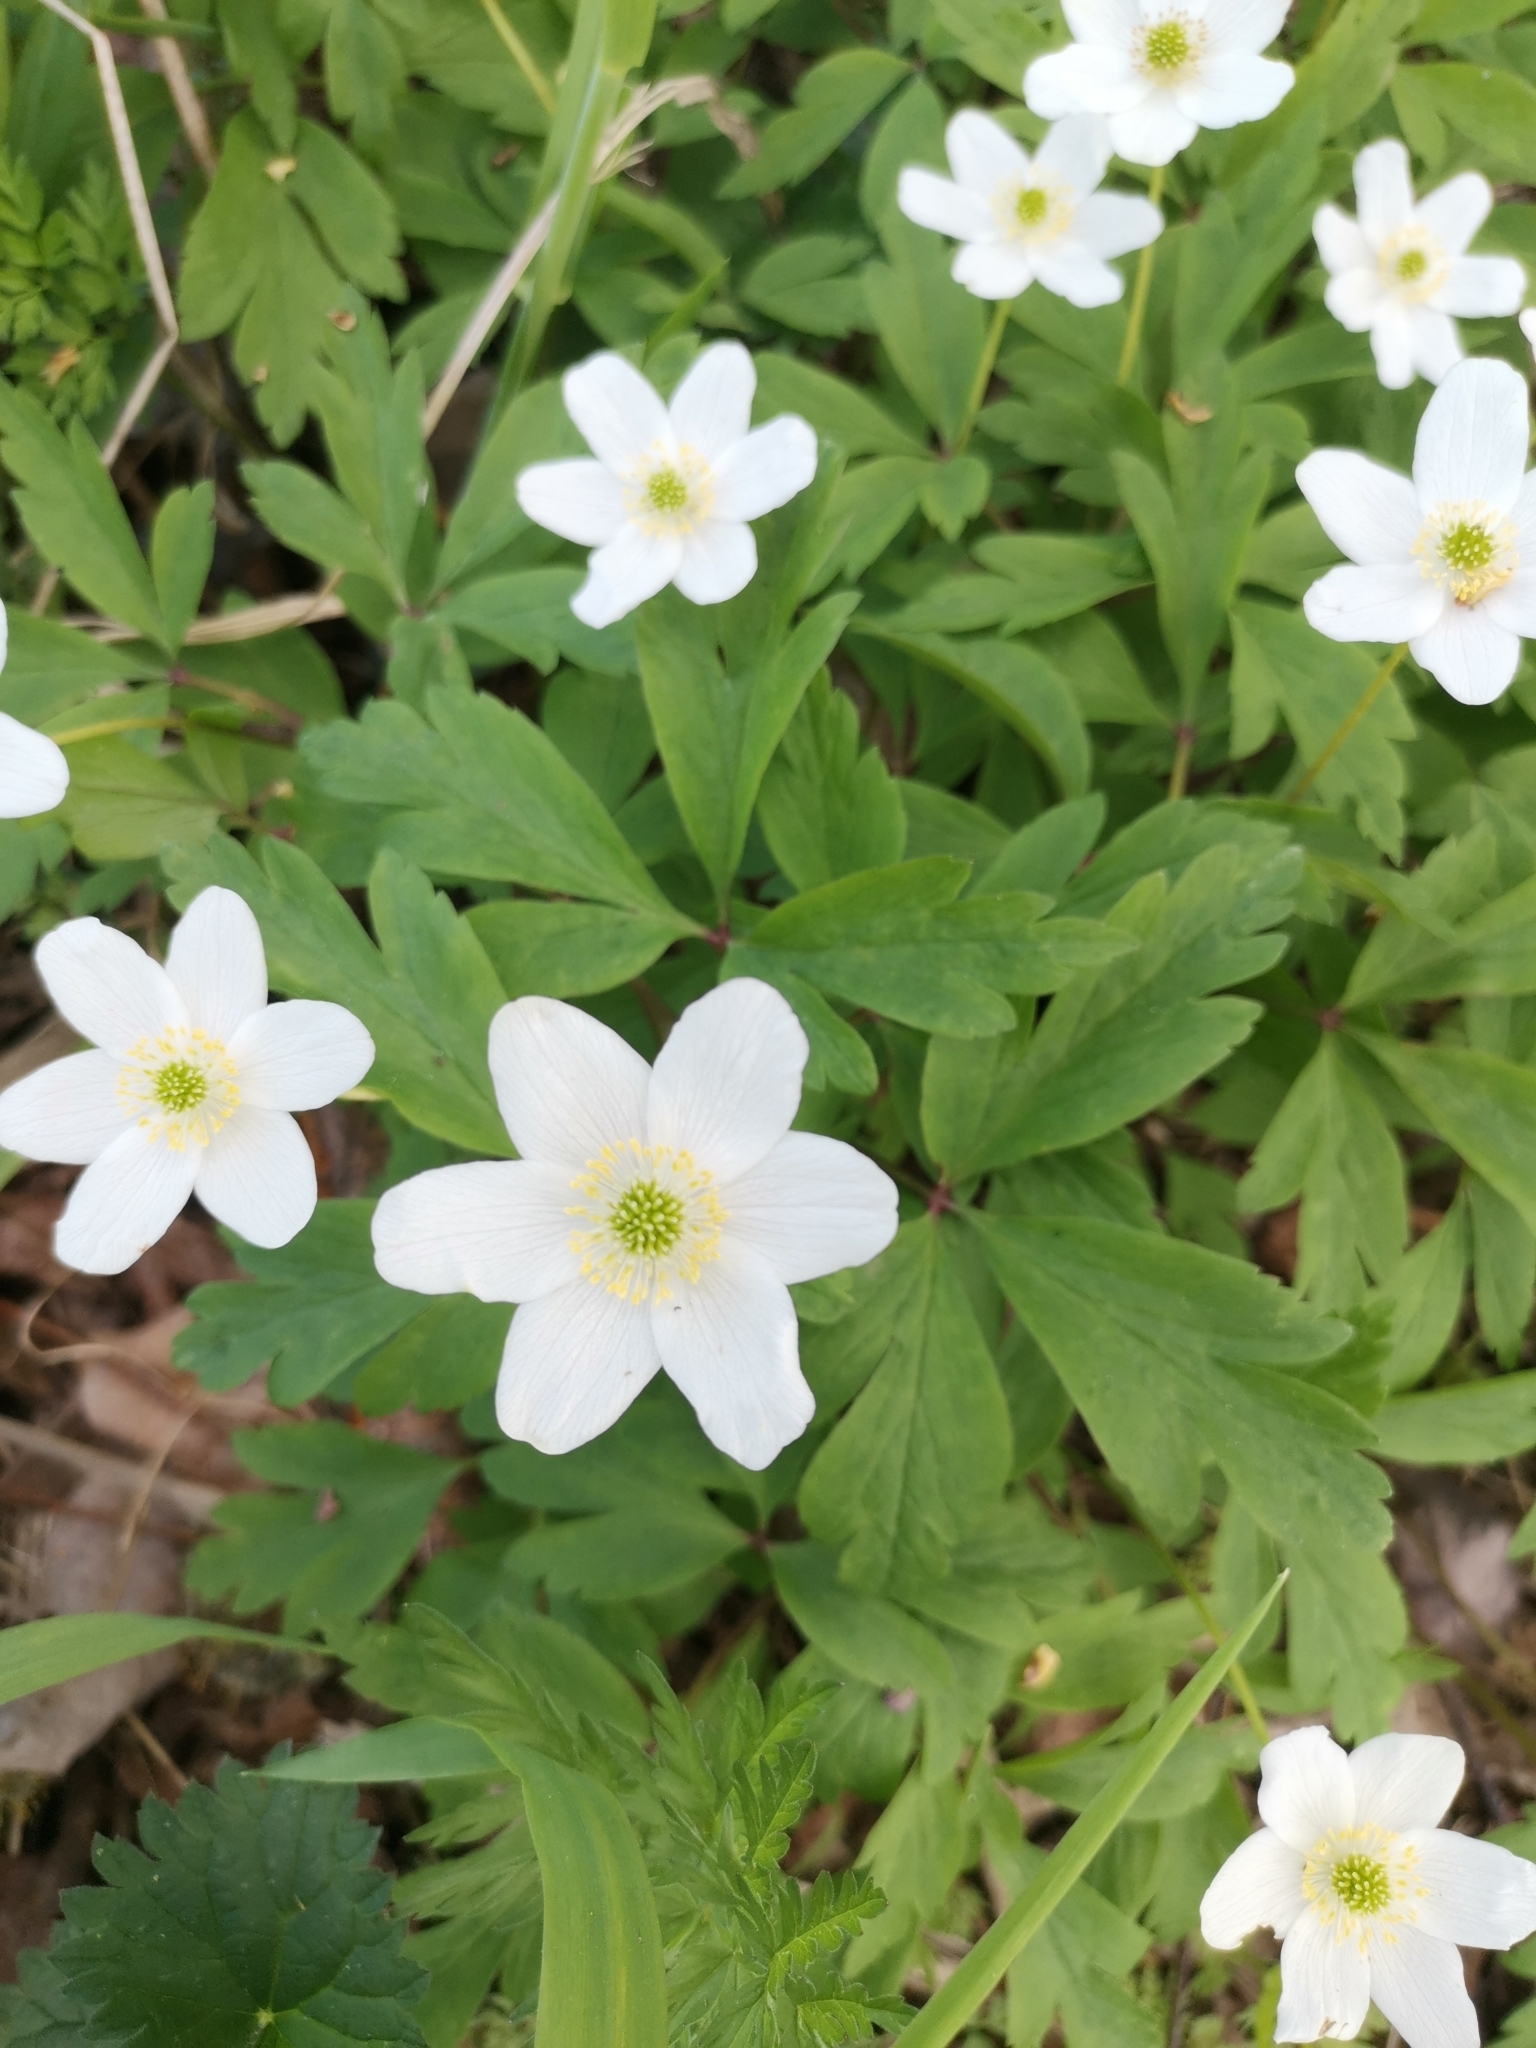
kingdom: Plantae
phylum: Tracheophyta
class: Magnoliopsida
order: Ranunculales
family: Ranunculaceae
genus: Anemone
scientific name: Anemone nemorosa
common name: Wood anemone
